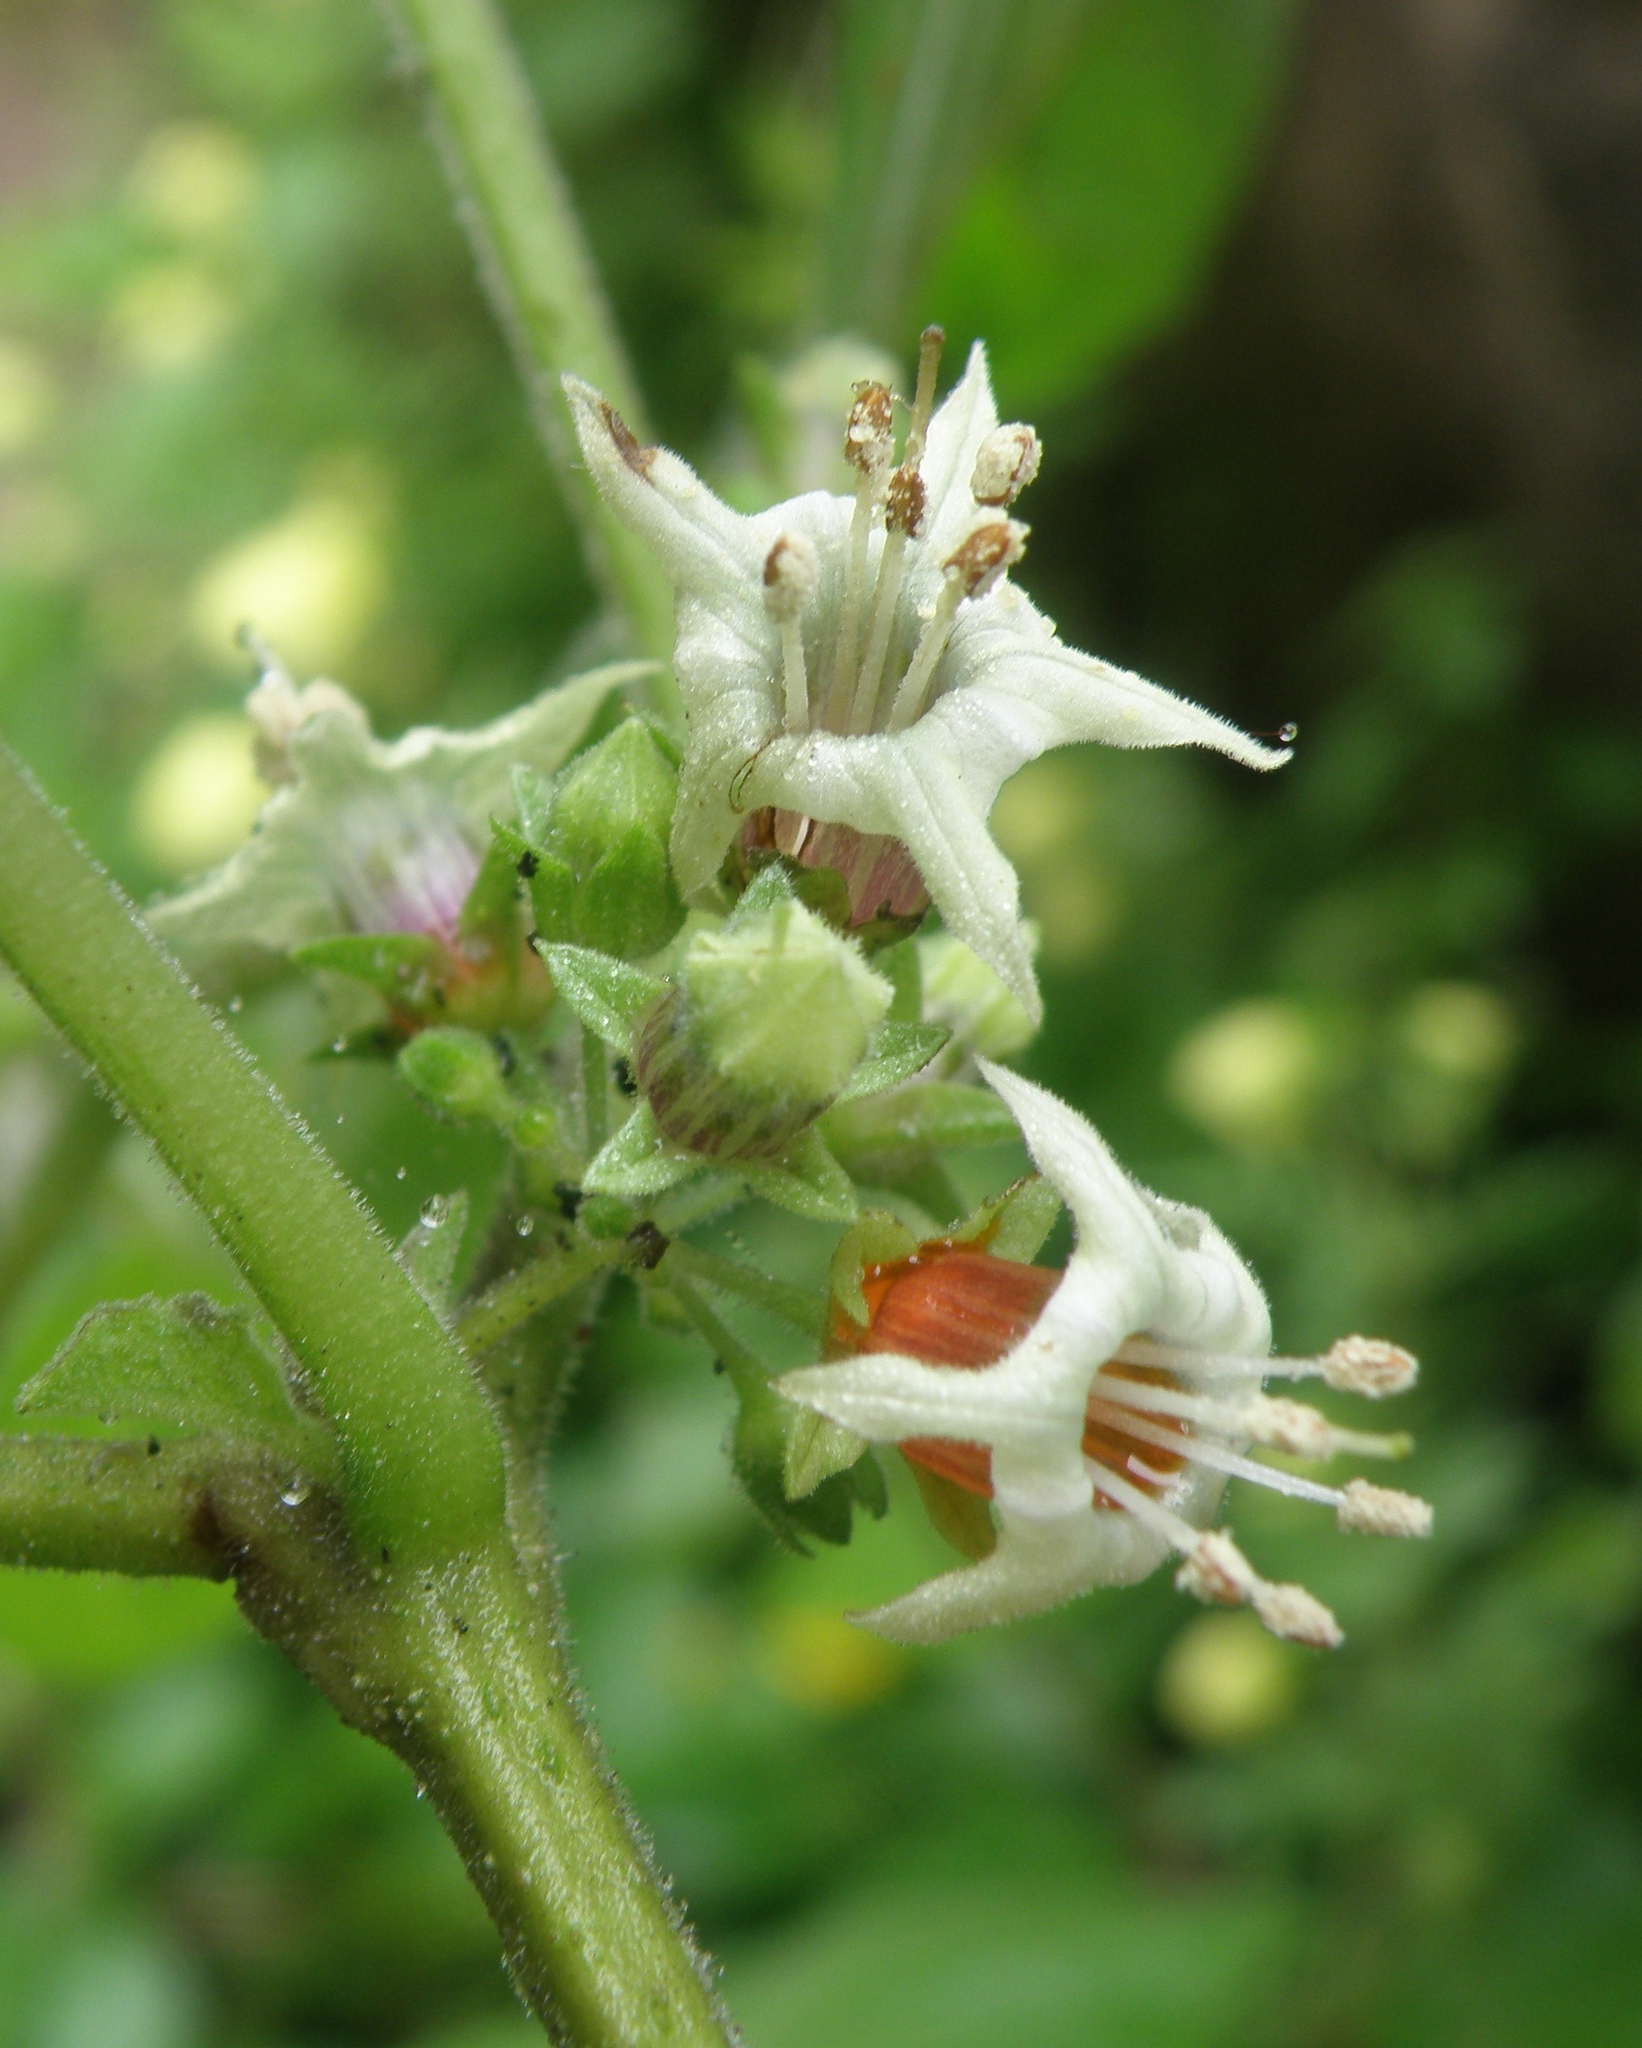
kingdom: Plantae
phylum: Tracheophyta
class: Magnoliopsida
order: Solanales
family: Solanaceae
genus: Jaltomata
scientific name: Jaltomata umbellata
